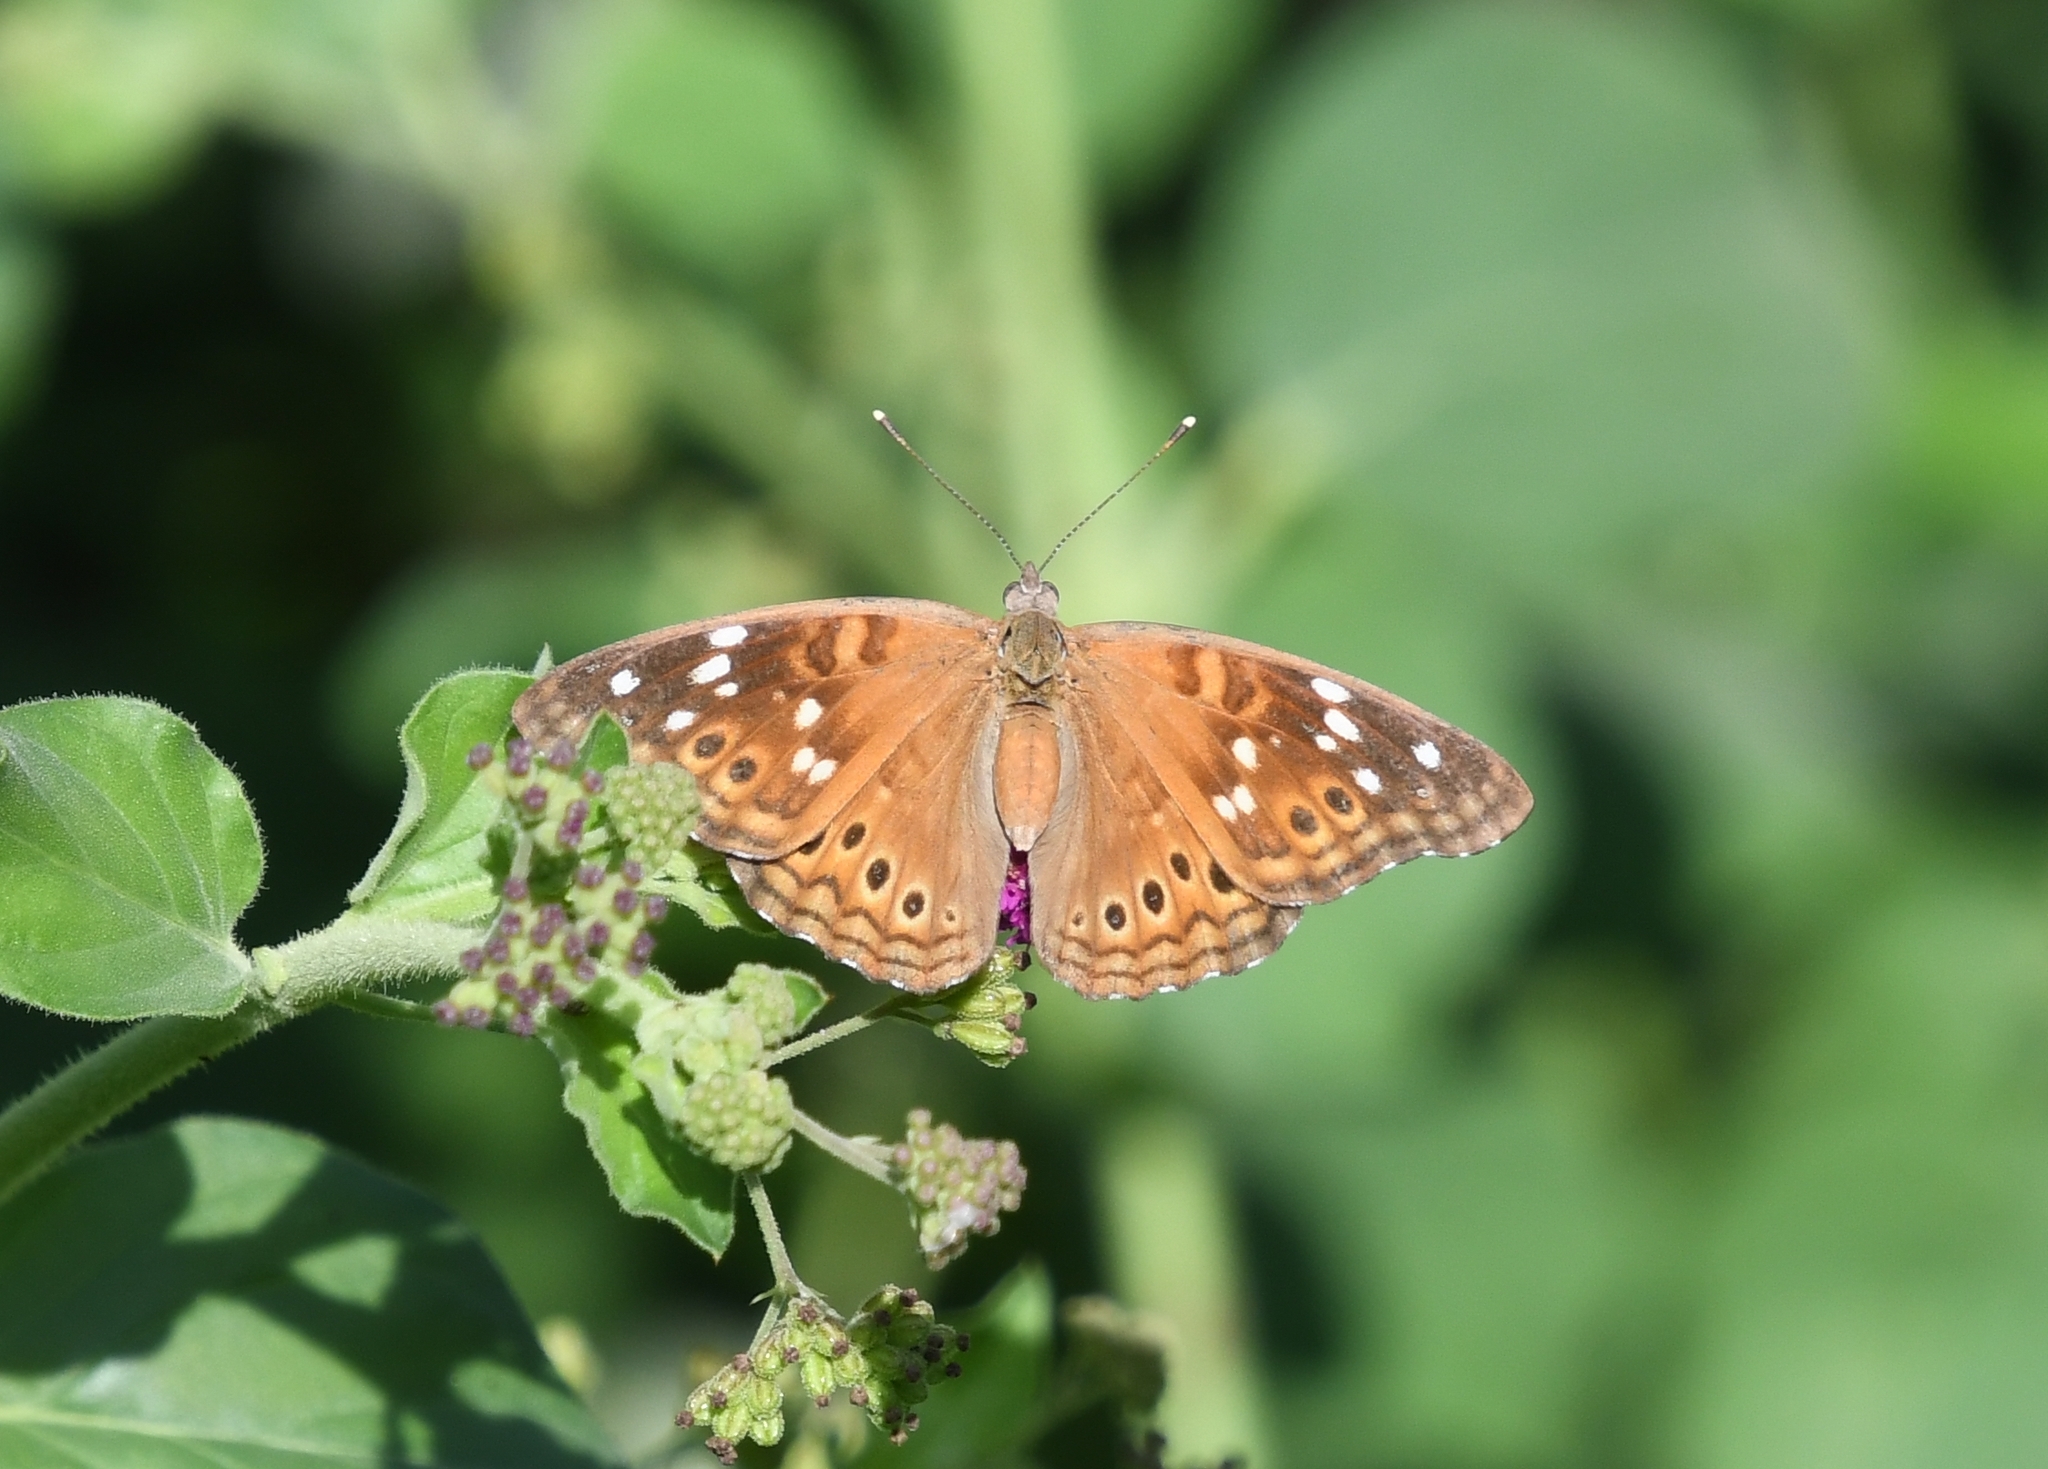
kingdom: Animalia
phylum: Arthropoda
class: Insecta
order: Lepidoptera
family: Nymphalidae
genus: Asterocampa
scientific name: Asterocampa leilia
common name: Empress leilia
